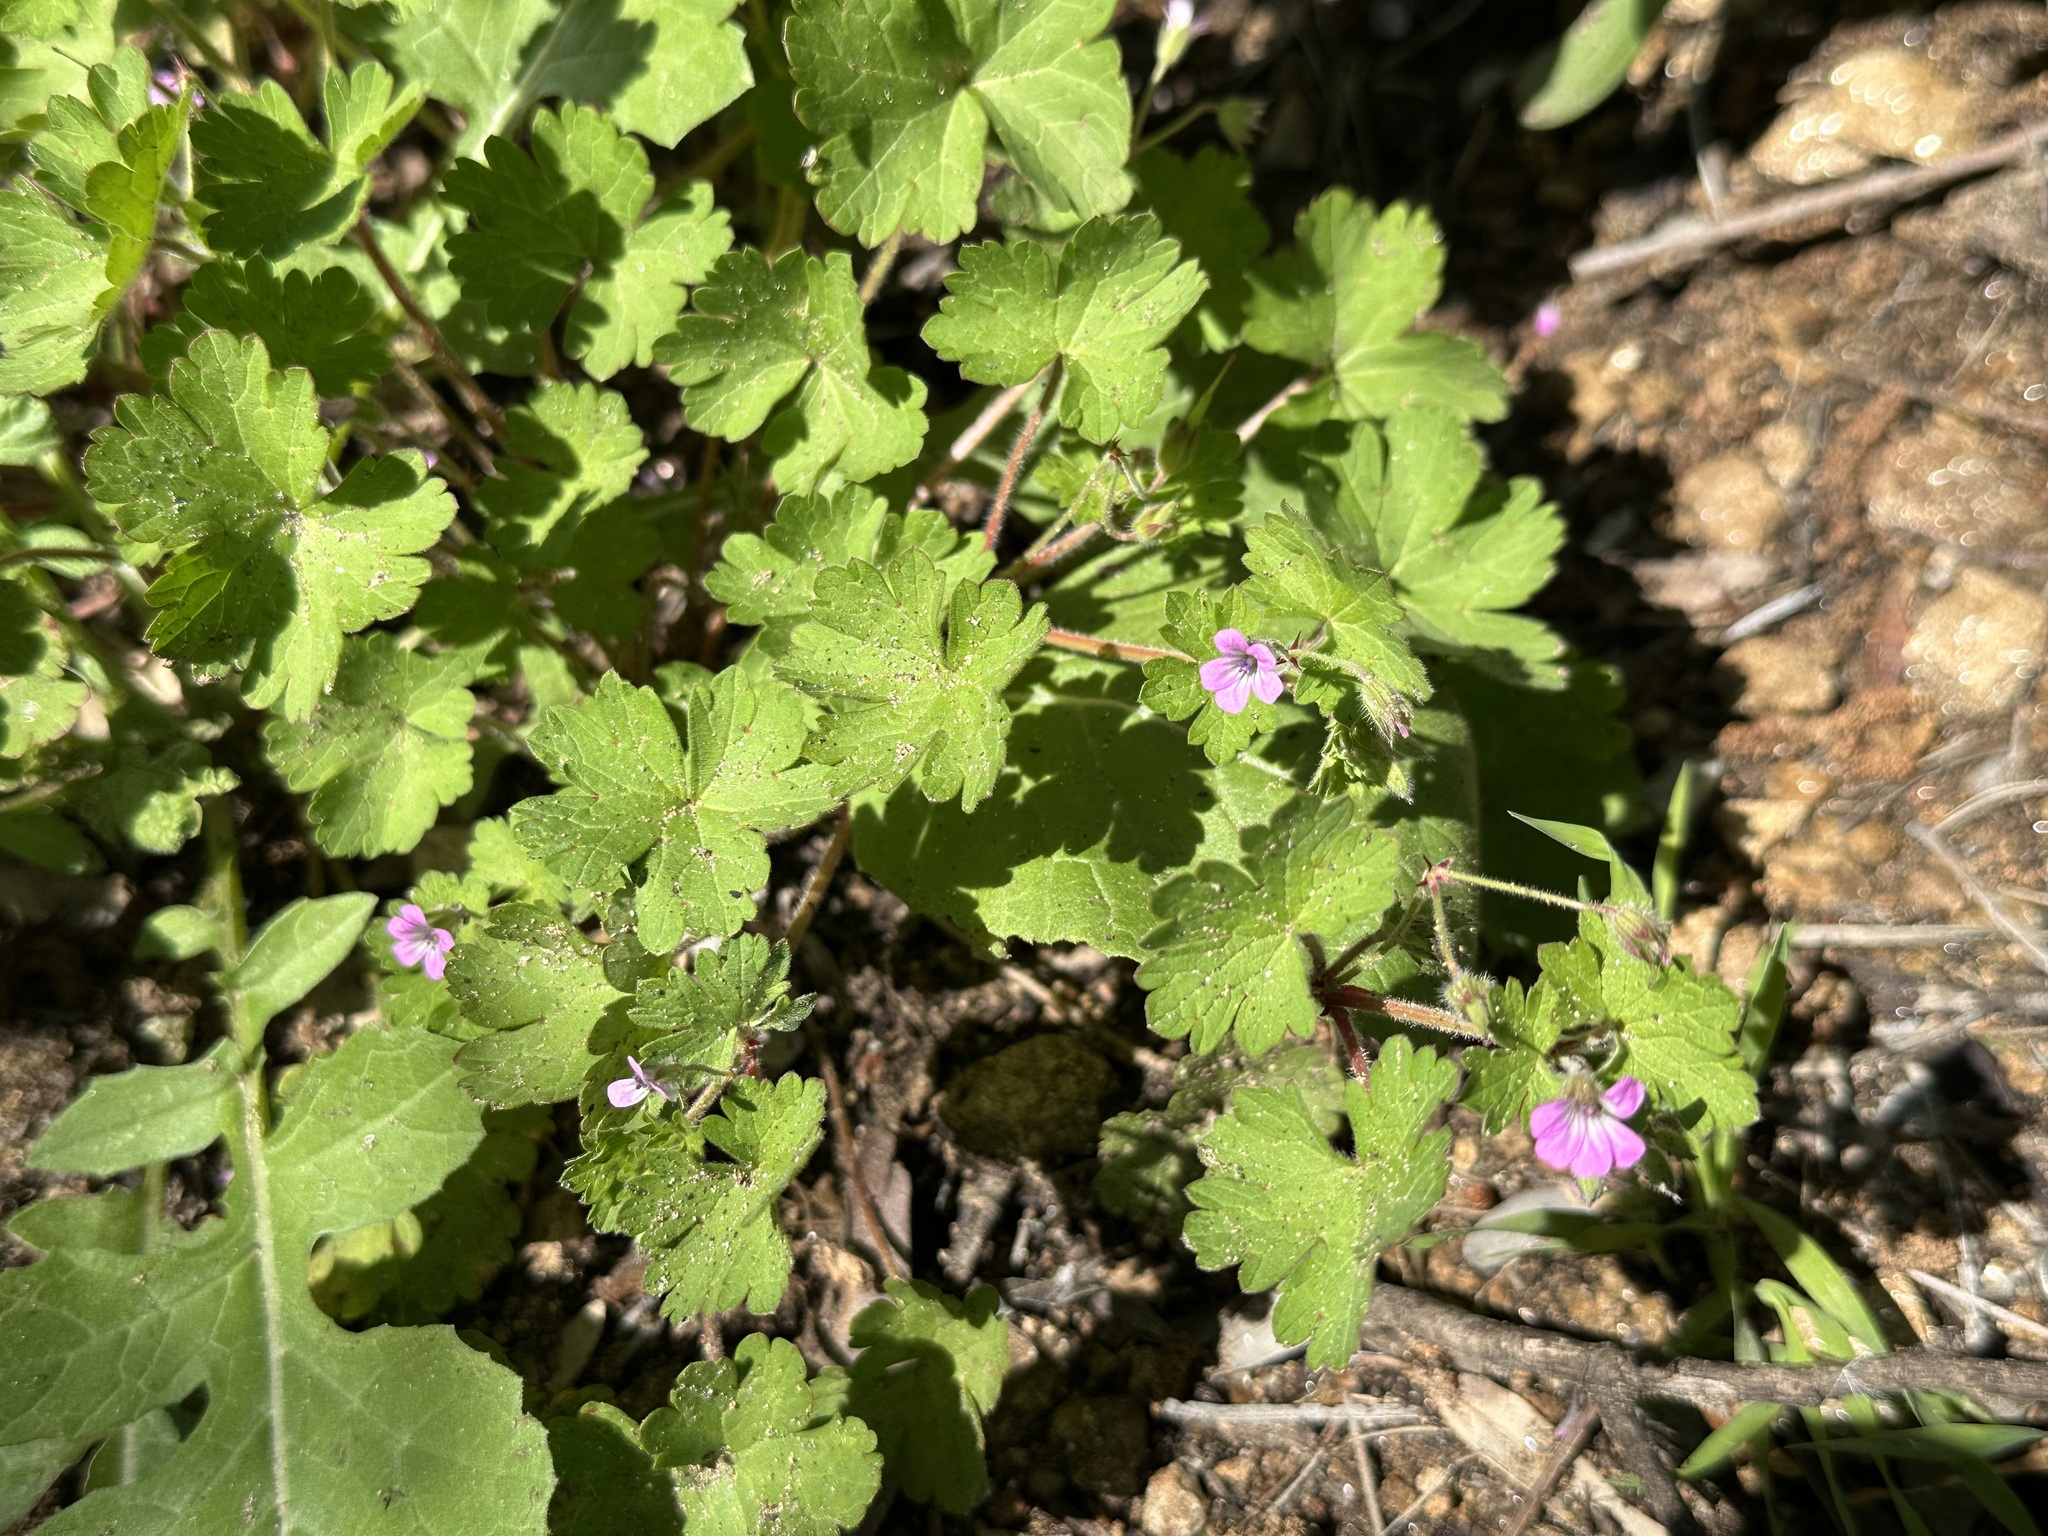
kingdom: Plantae
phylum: Tracheophyta
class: Magnoliopsida
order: Geraniales
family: Geraniaceae
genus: Geranium
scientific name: Geranium rotundifolium
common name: Round-leaved crane's-bill
